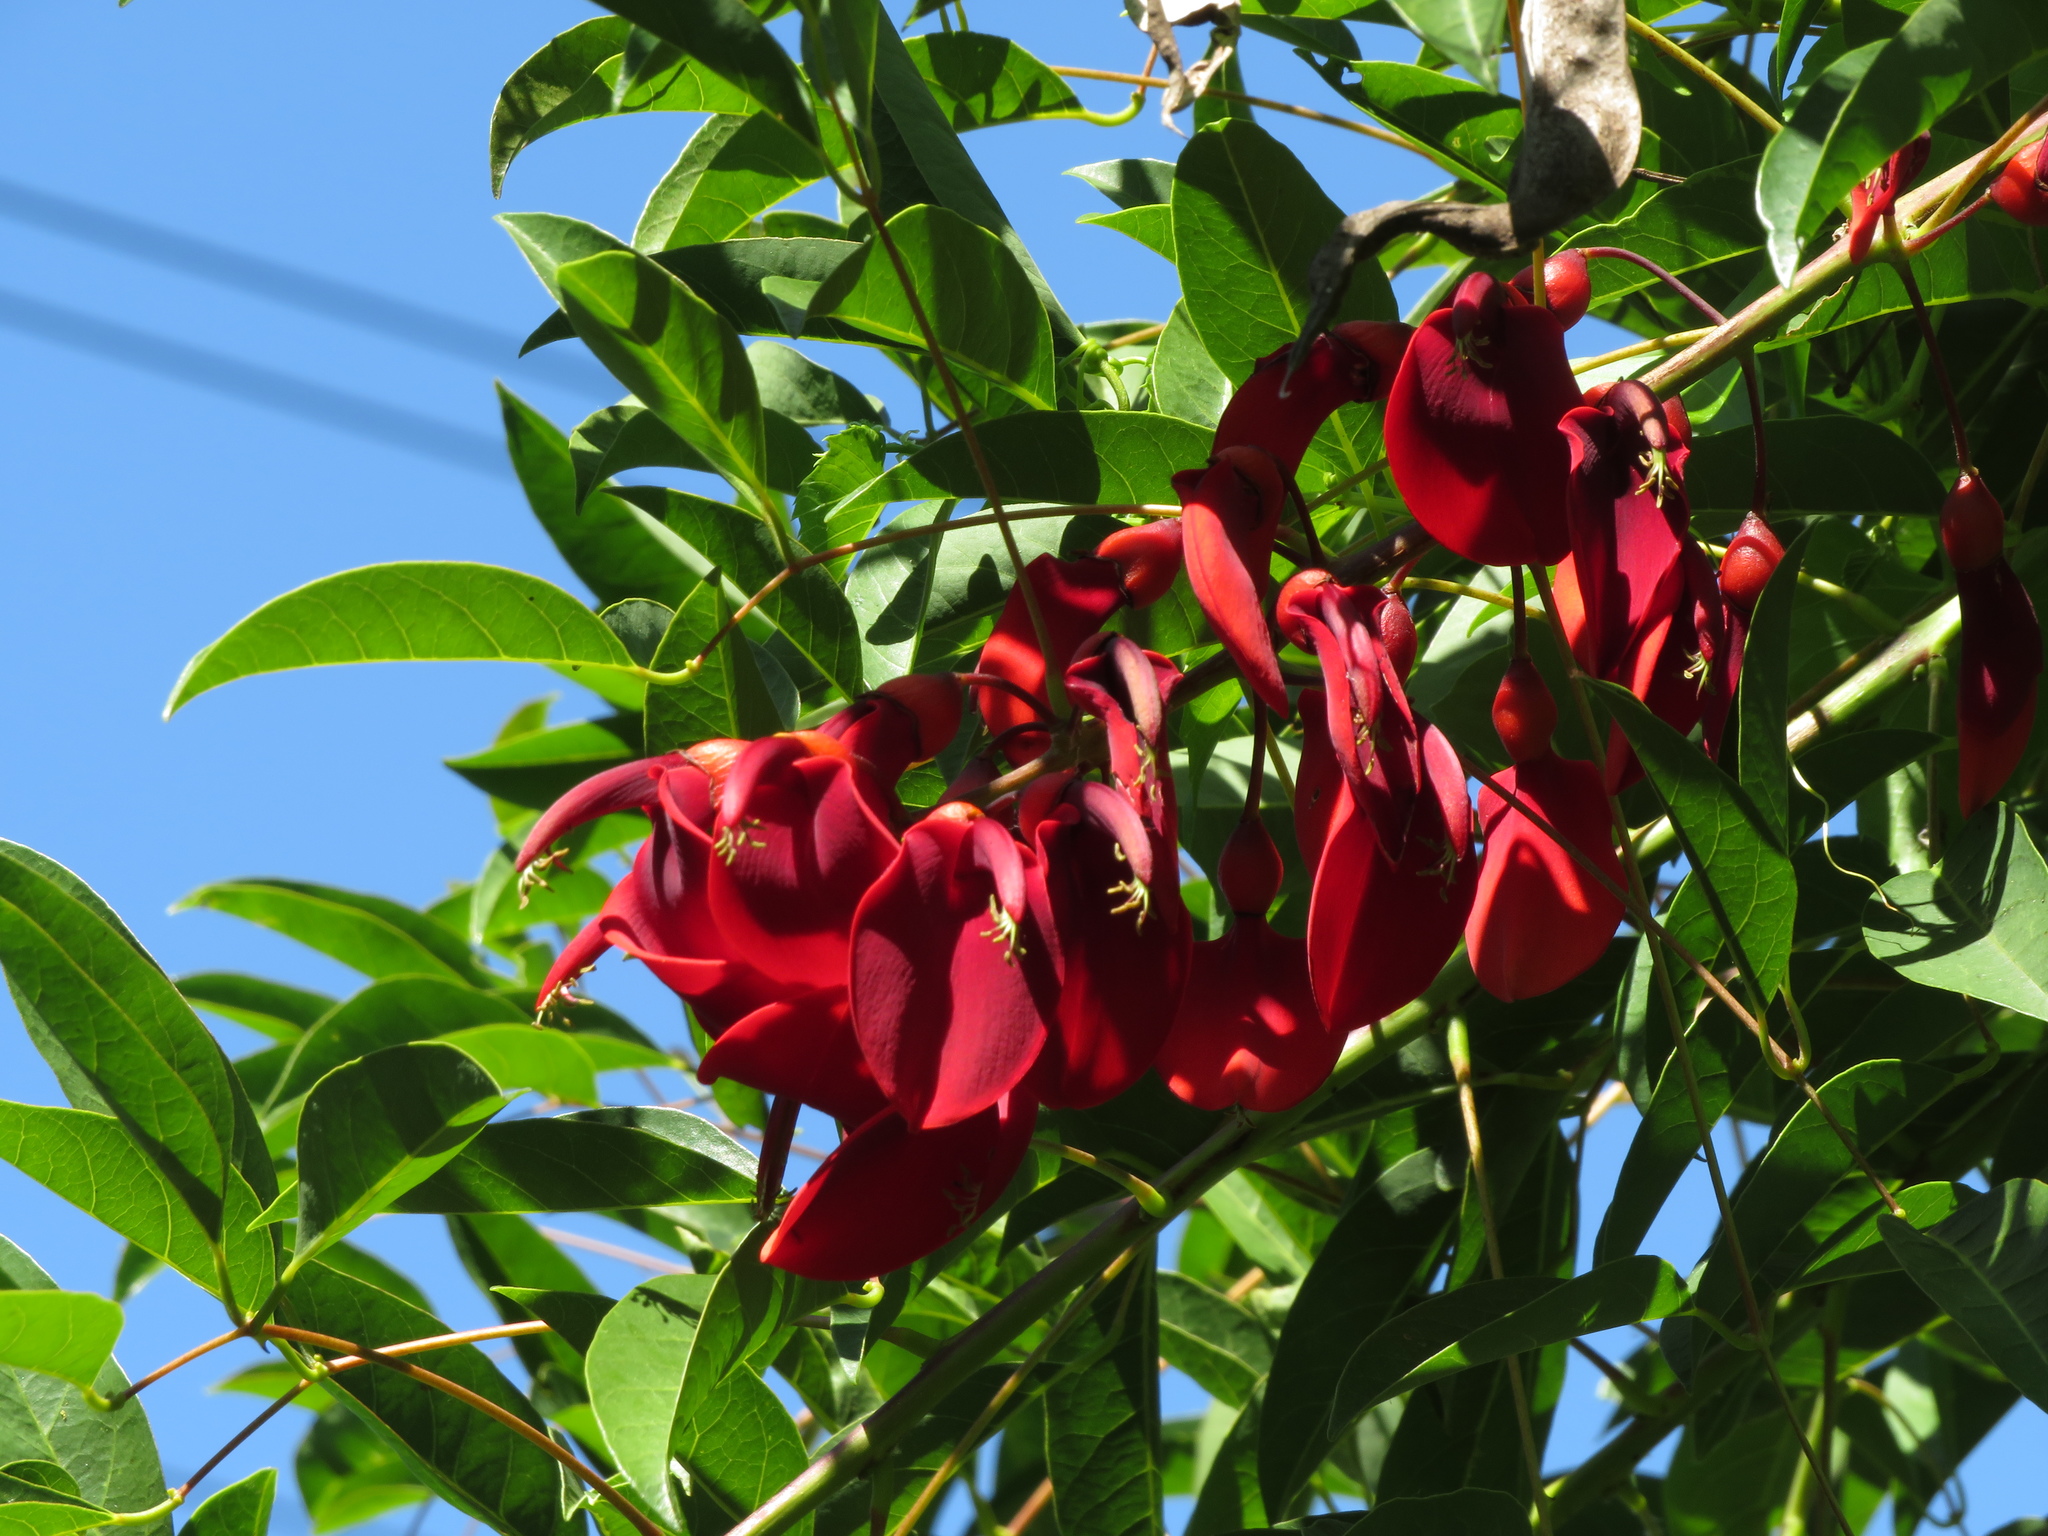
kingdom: Plantae
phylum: Tracheophyta
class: Magnoliopsida
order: Fabales
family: Fabaceae
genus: Erythrina
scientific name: Erythrina crista-galli
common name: Cockspur coral tree
